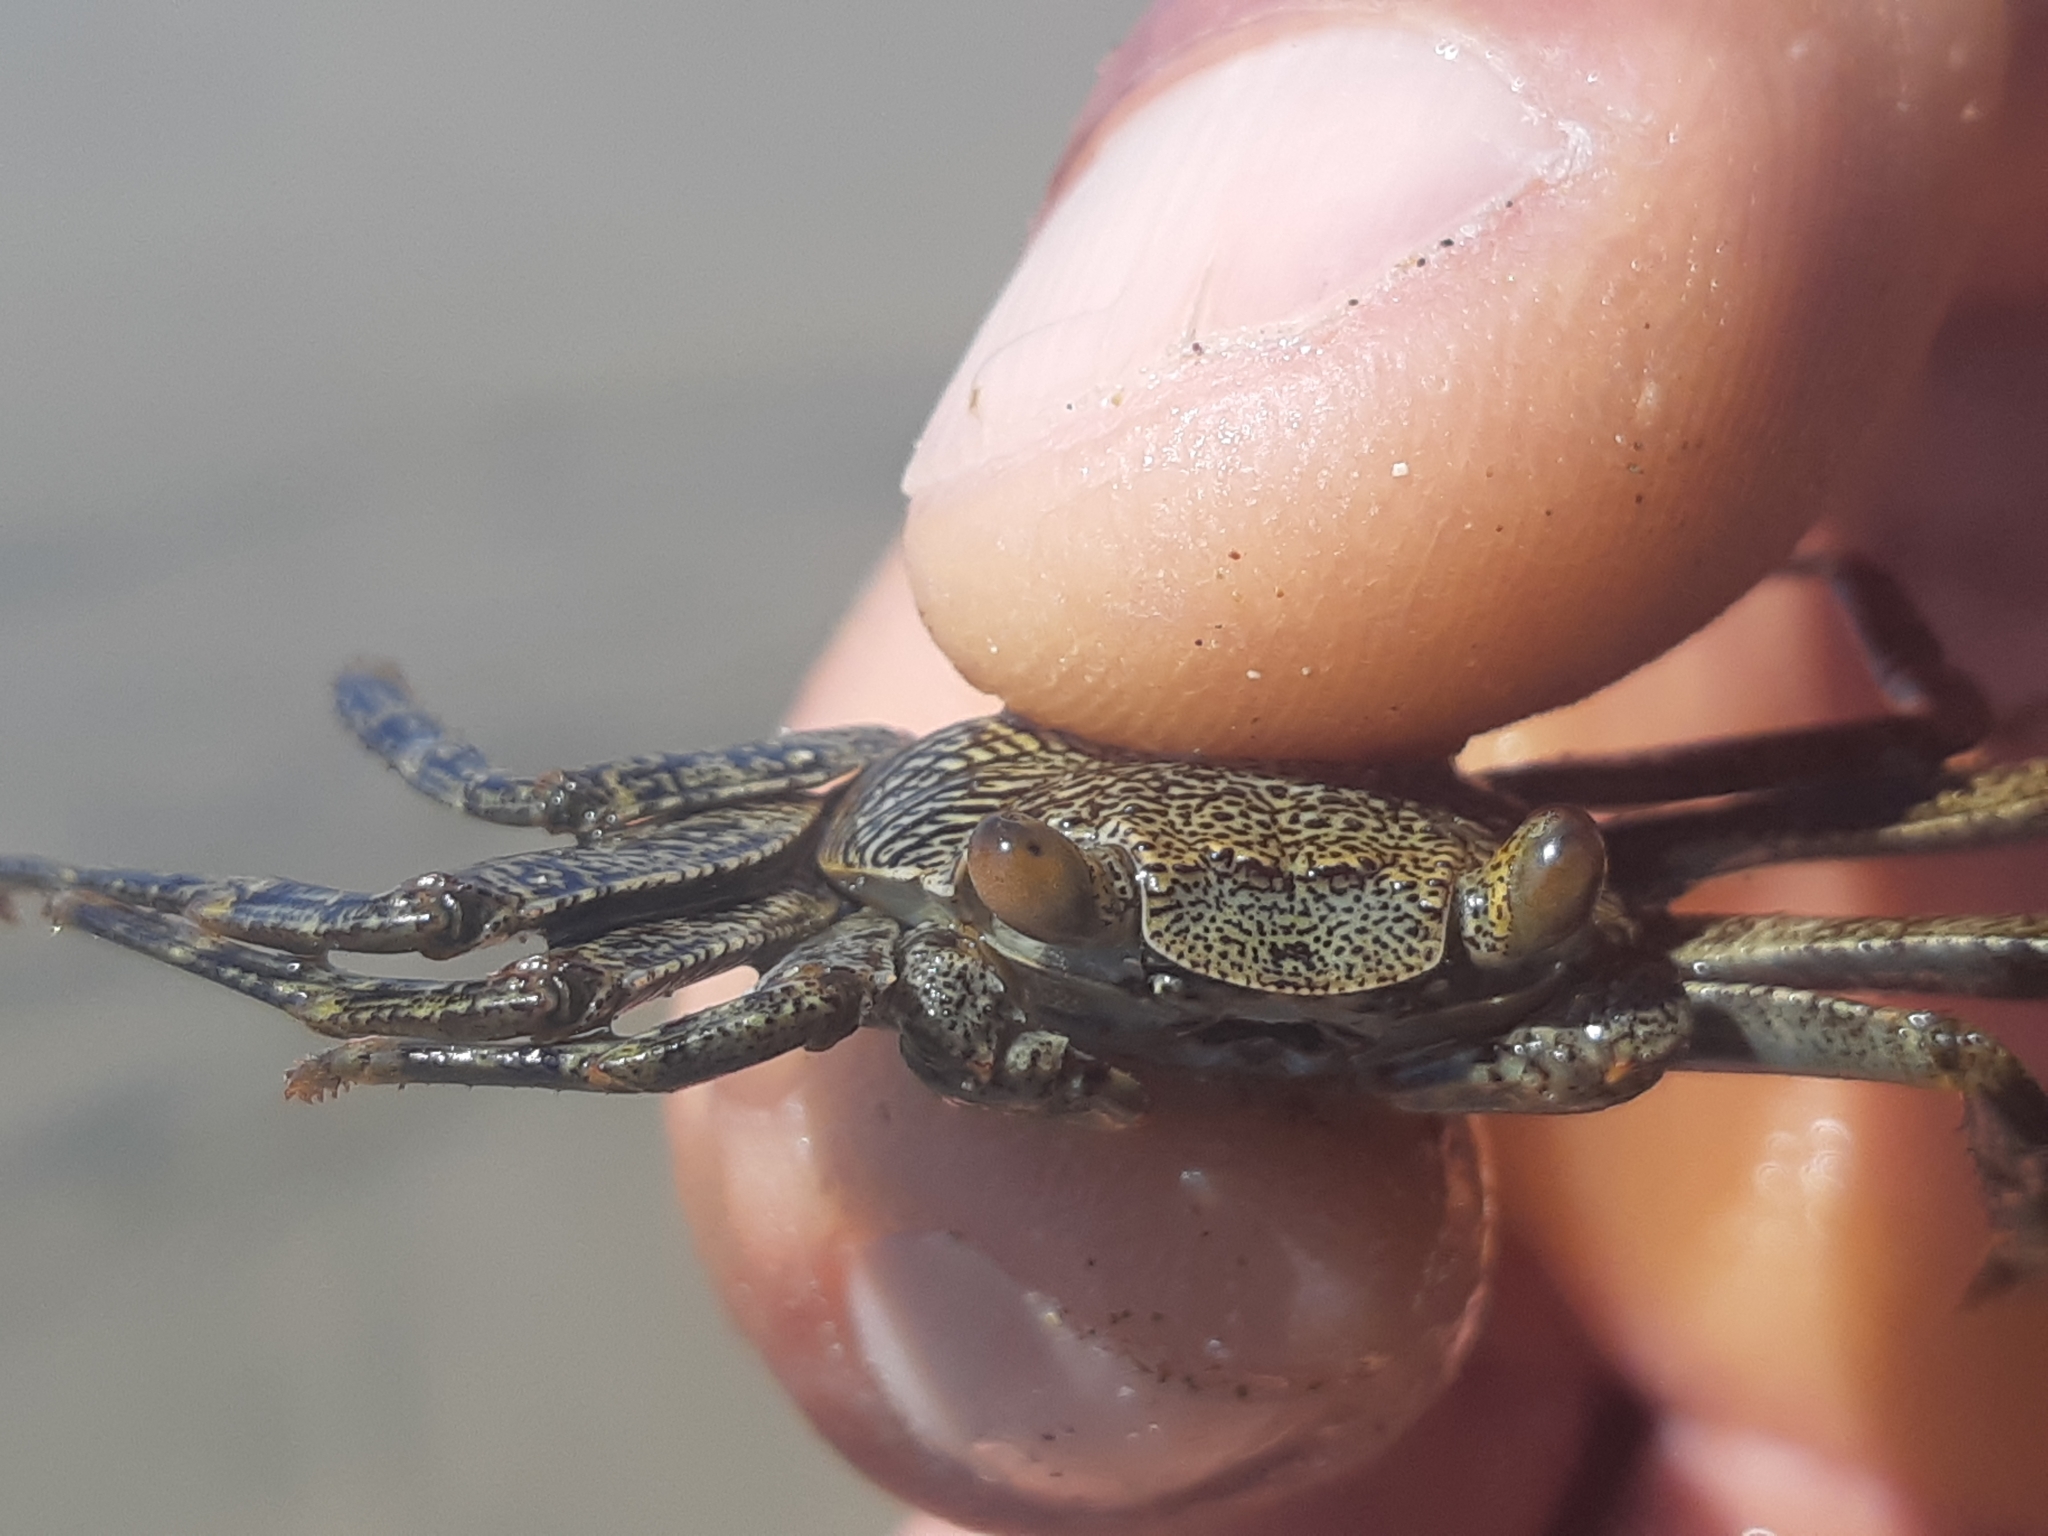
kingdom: Animalia
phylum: Arthropoda
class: Malacostraca
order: Decapoda
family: Grapsidae
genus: Grapsus
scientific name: Grapsus grapsus
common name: Sally lightfoot
